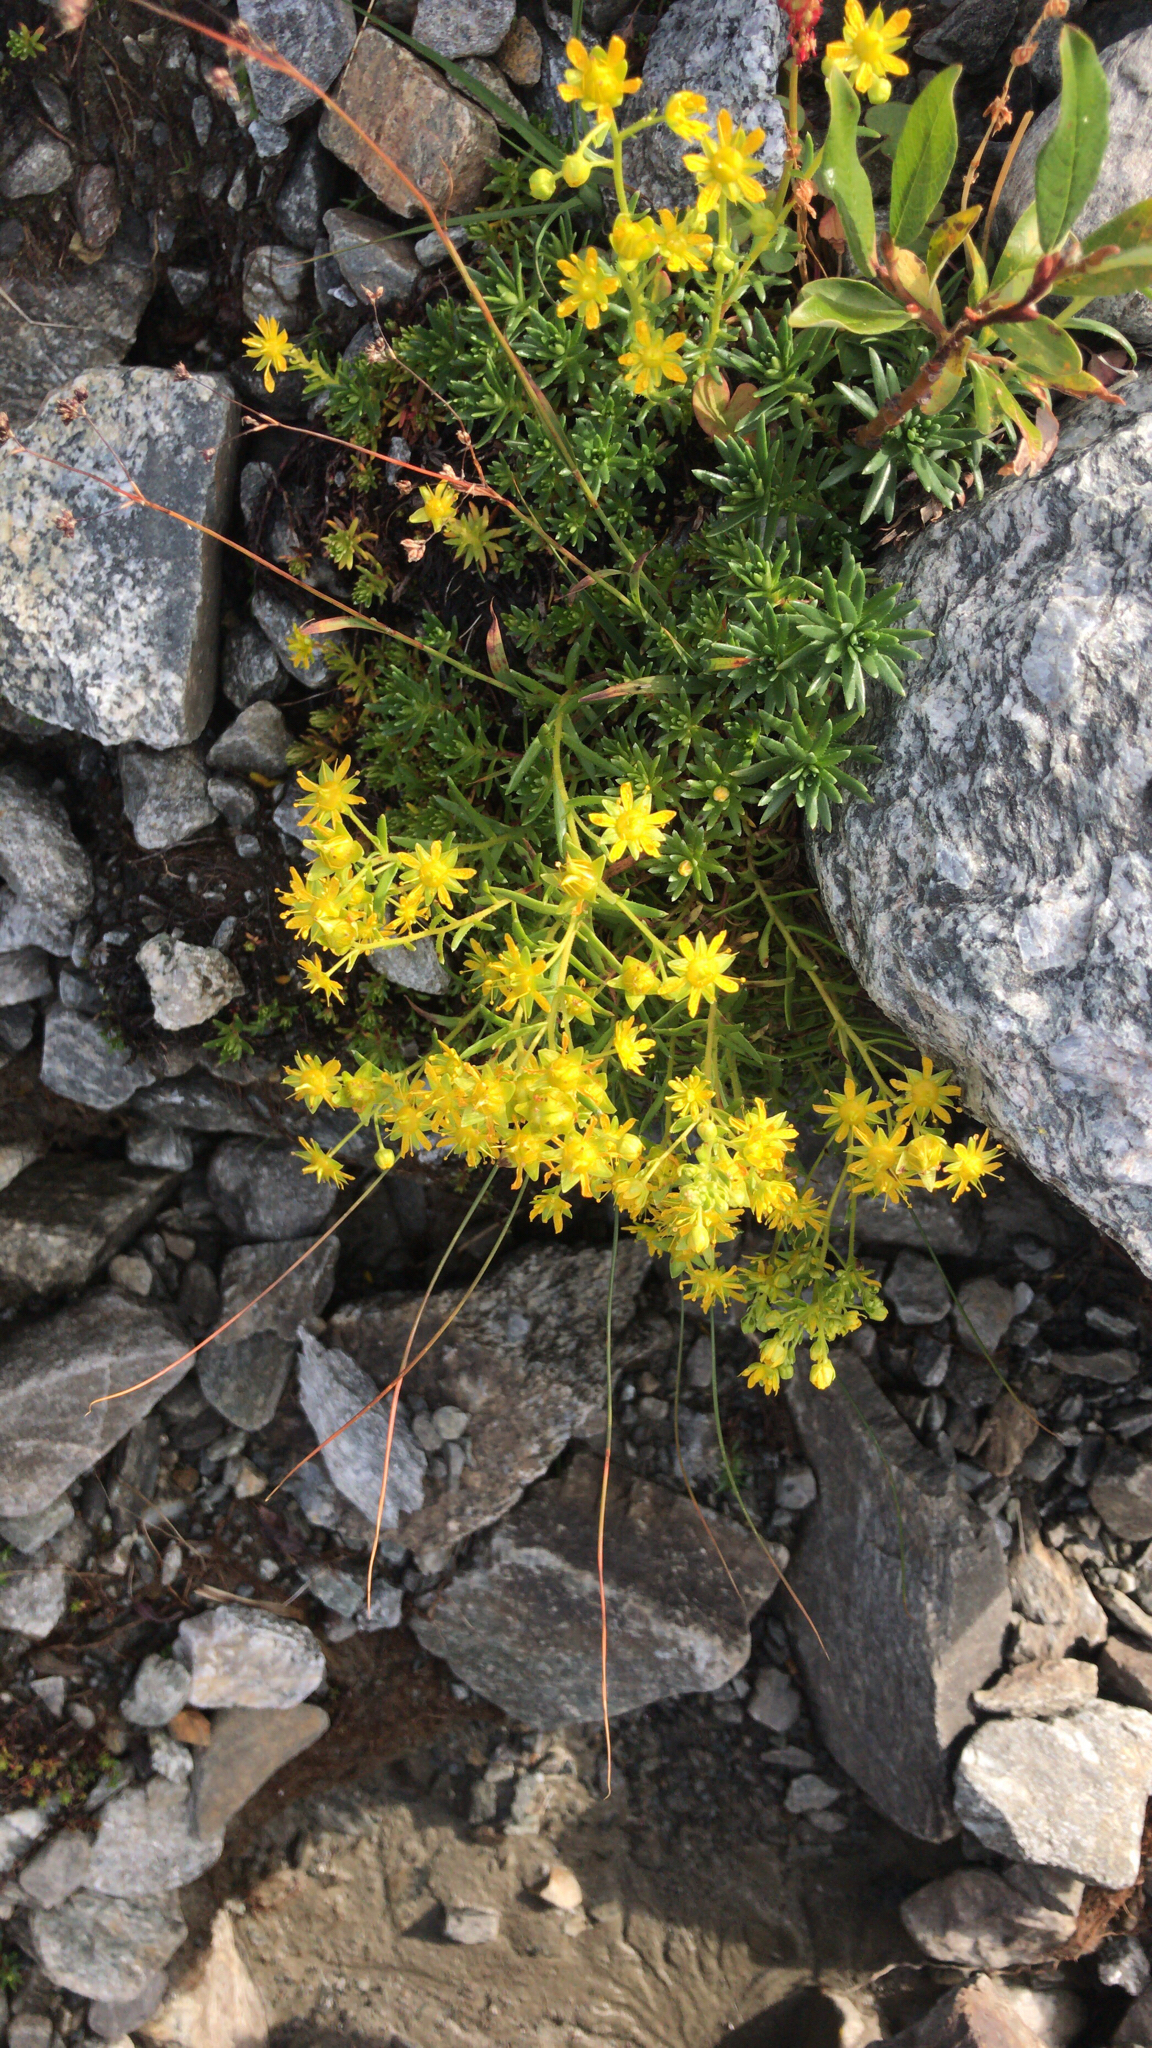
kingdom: Plantae
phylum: Tracheophyta
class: Magnoliopsida
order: Saxifragales
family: Saxifragaceae
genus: Saxifraga
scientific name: Saxifraga aizoides
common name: Yellow mountain saxifrage
